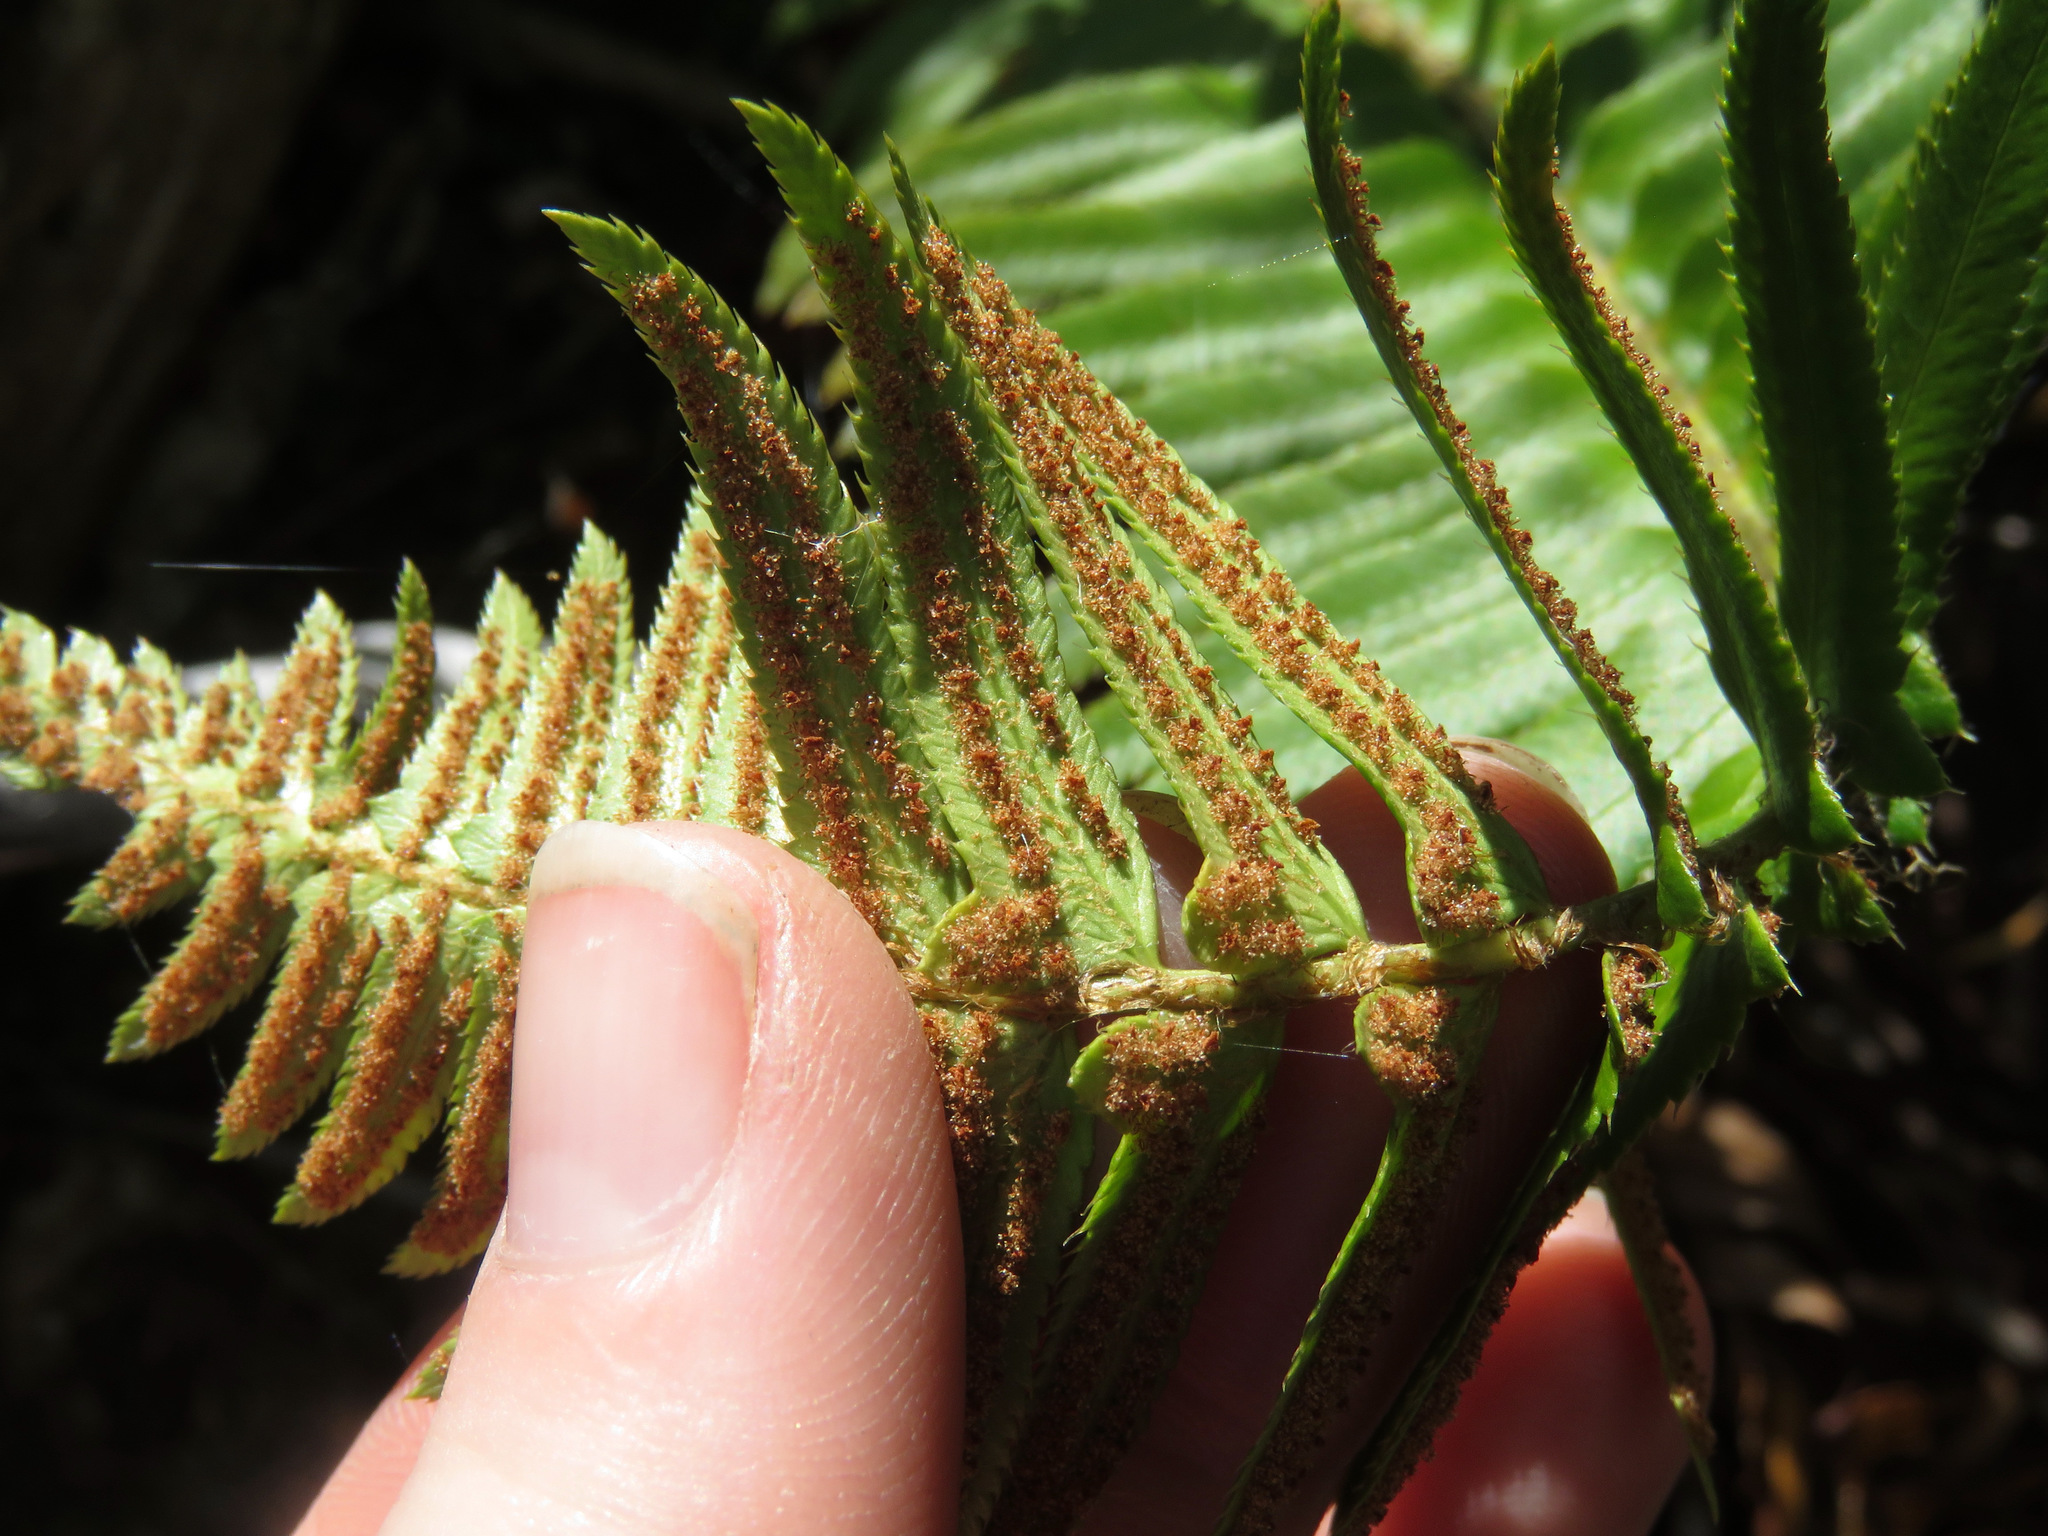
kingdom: Plantae
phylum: Tracheophyta
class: Polypodiopsida
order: Polypodiales
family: Dryopteridaceae
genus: Polystichum
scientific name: Polystichum munitum
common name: Western sword-fern
